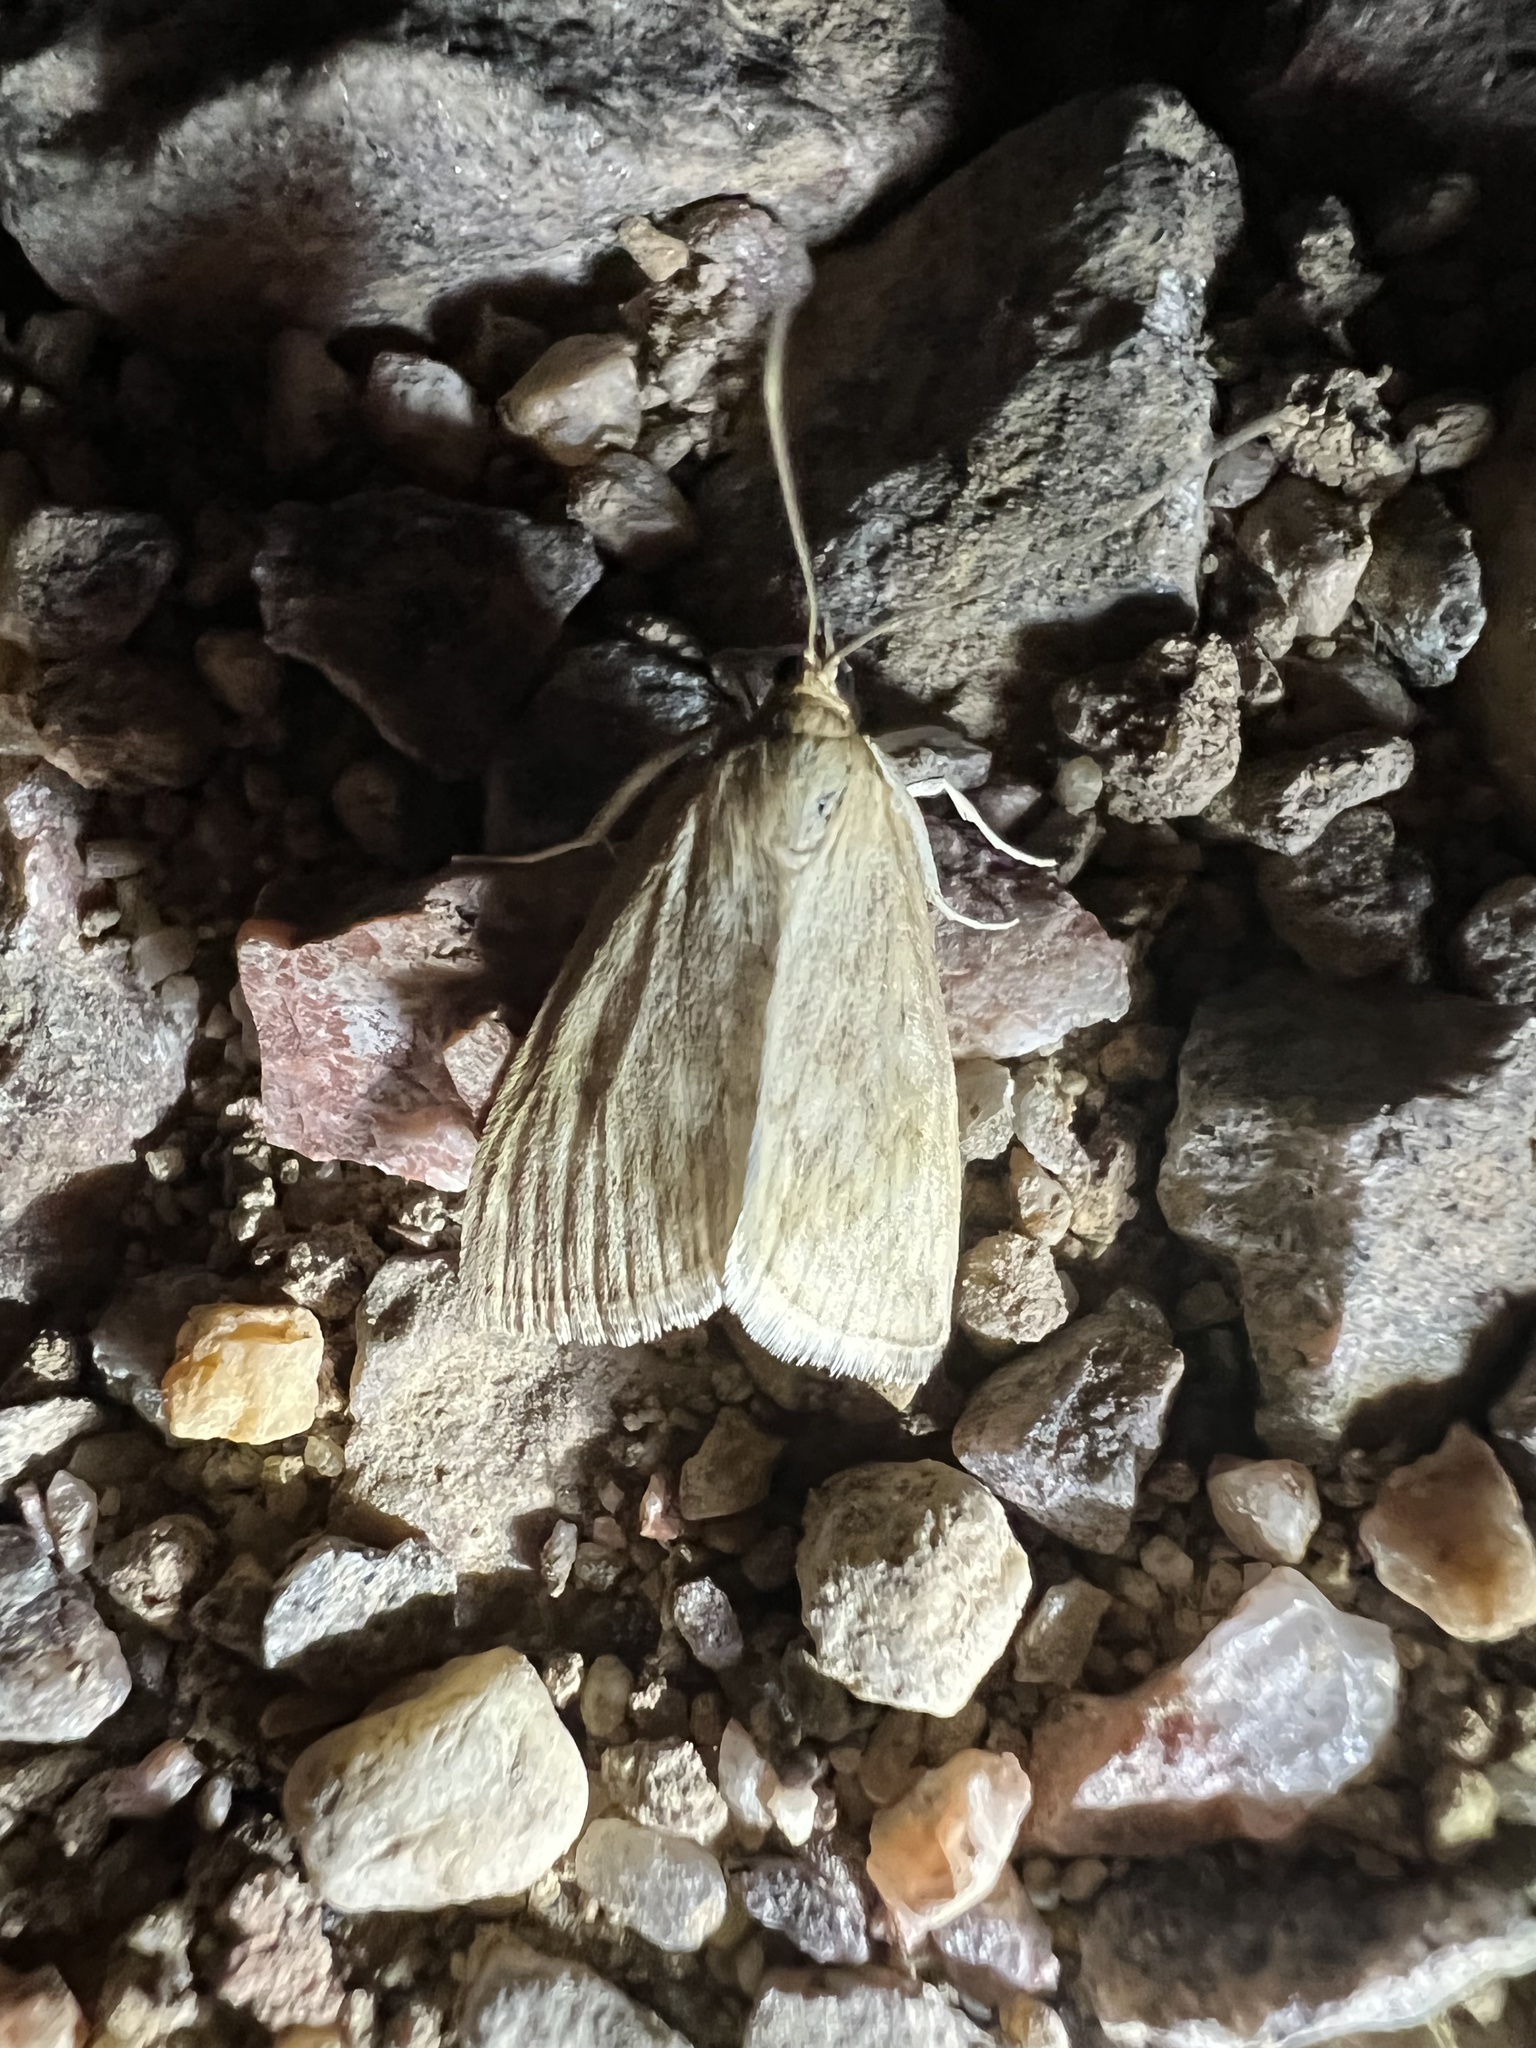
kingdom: Animalia
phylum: Arthropoda
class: Insecta
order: Lepidoptera
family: Crambidae
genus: Sitochroa
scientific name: Sitochroa chortalis
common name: Dimorphic sitochroa moth
